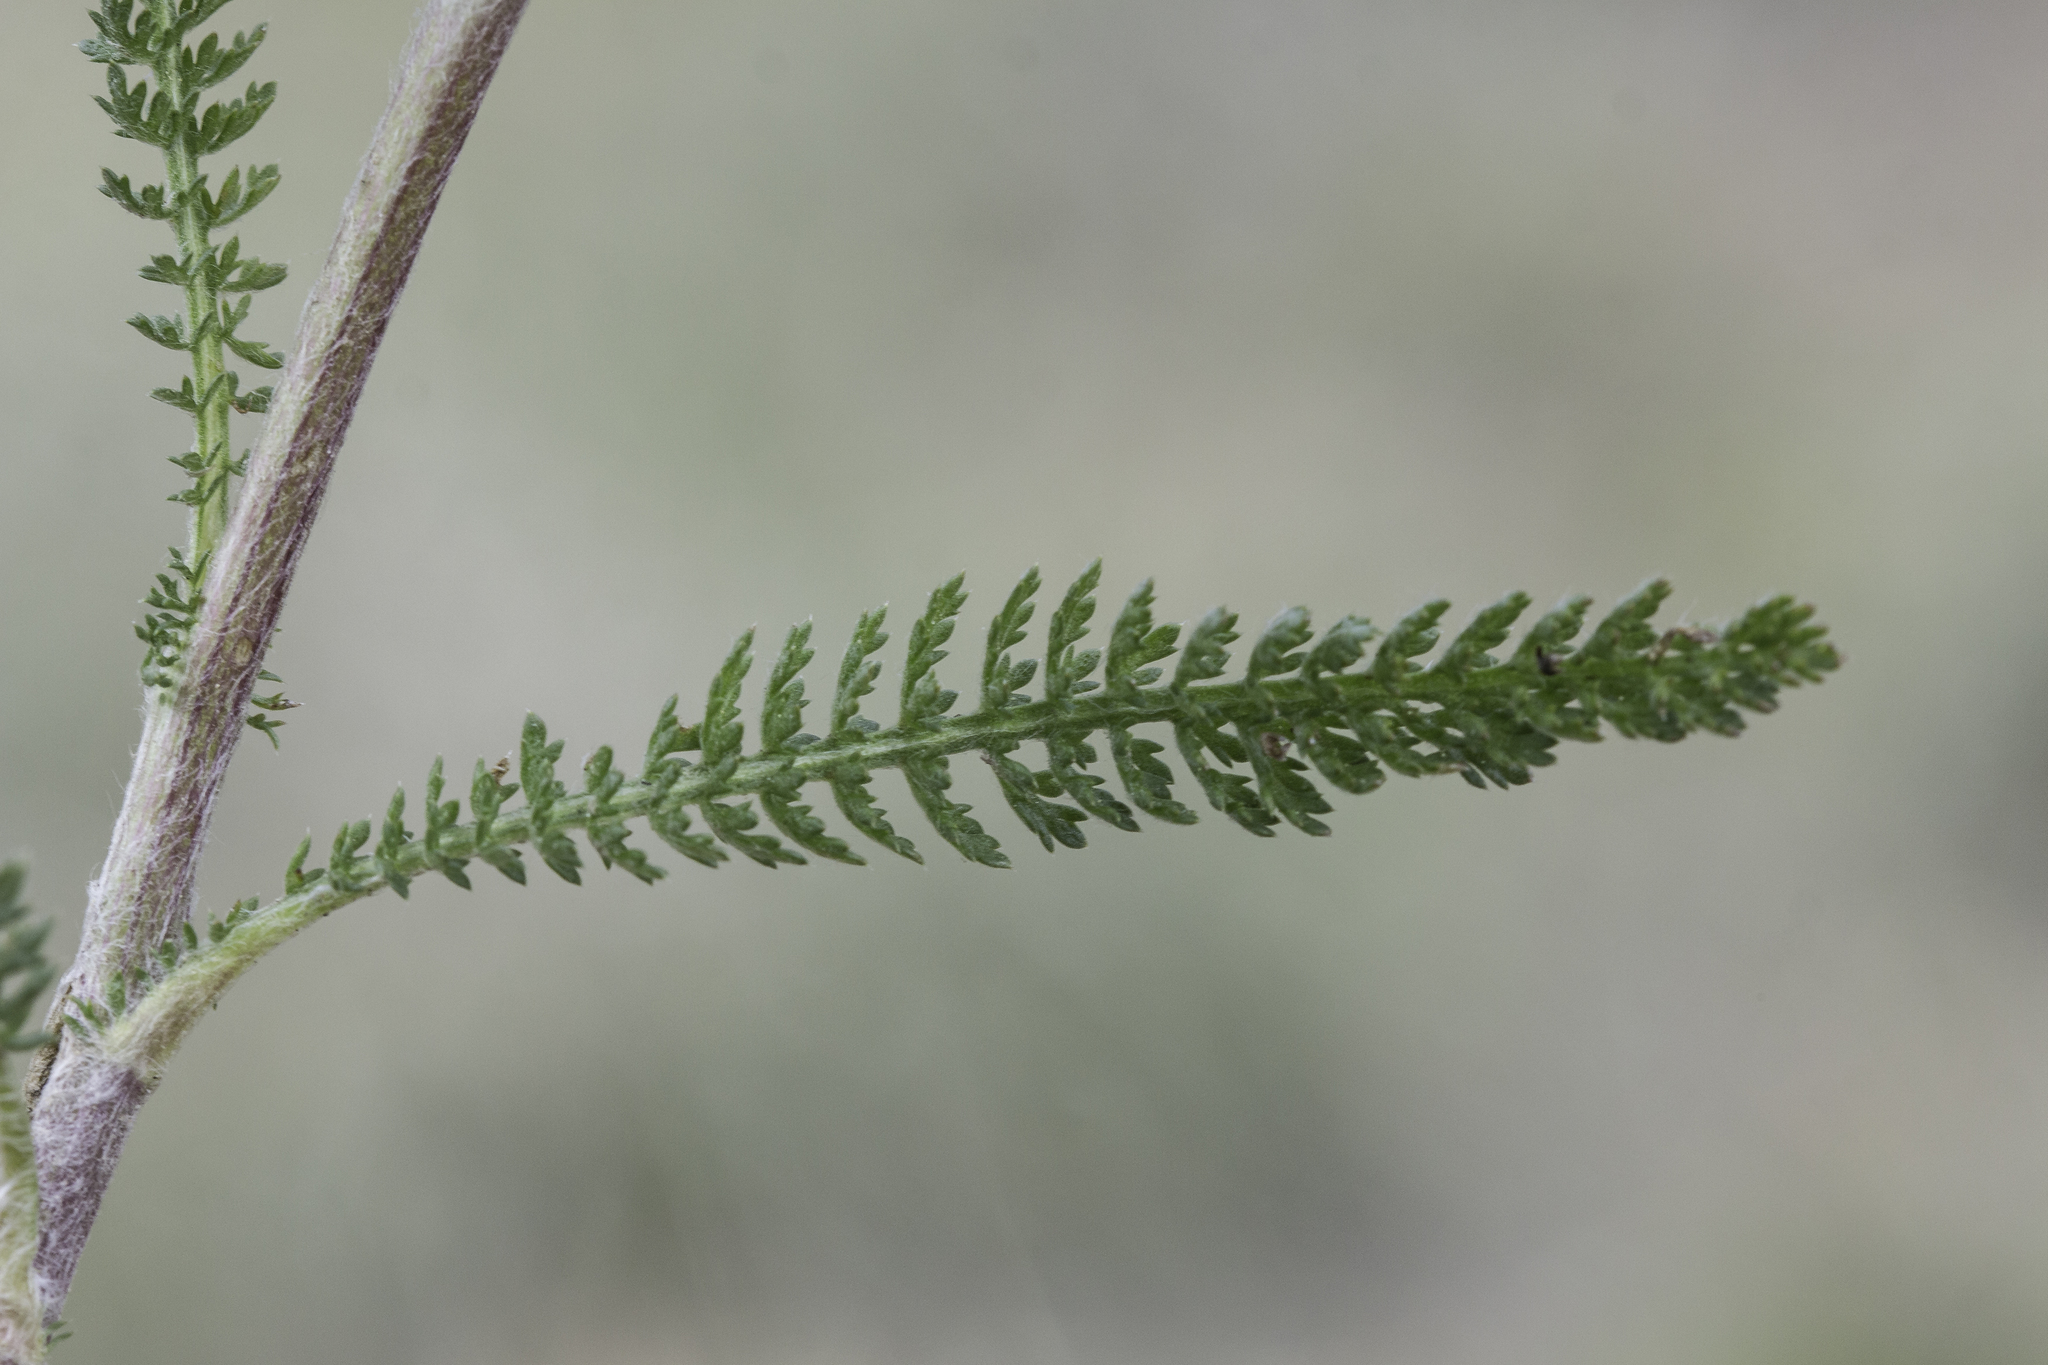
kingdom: Plantae
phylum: Tracheophyta
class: Magnoliopsida
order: Asterales
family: Asteraceae
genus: Achillea
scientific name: Achillea millefolium
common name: Yarrow
